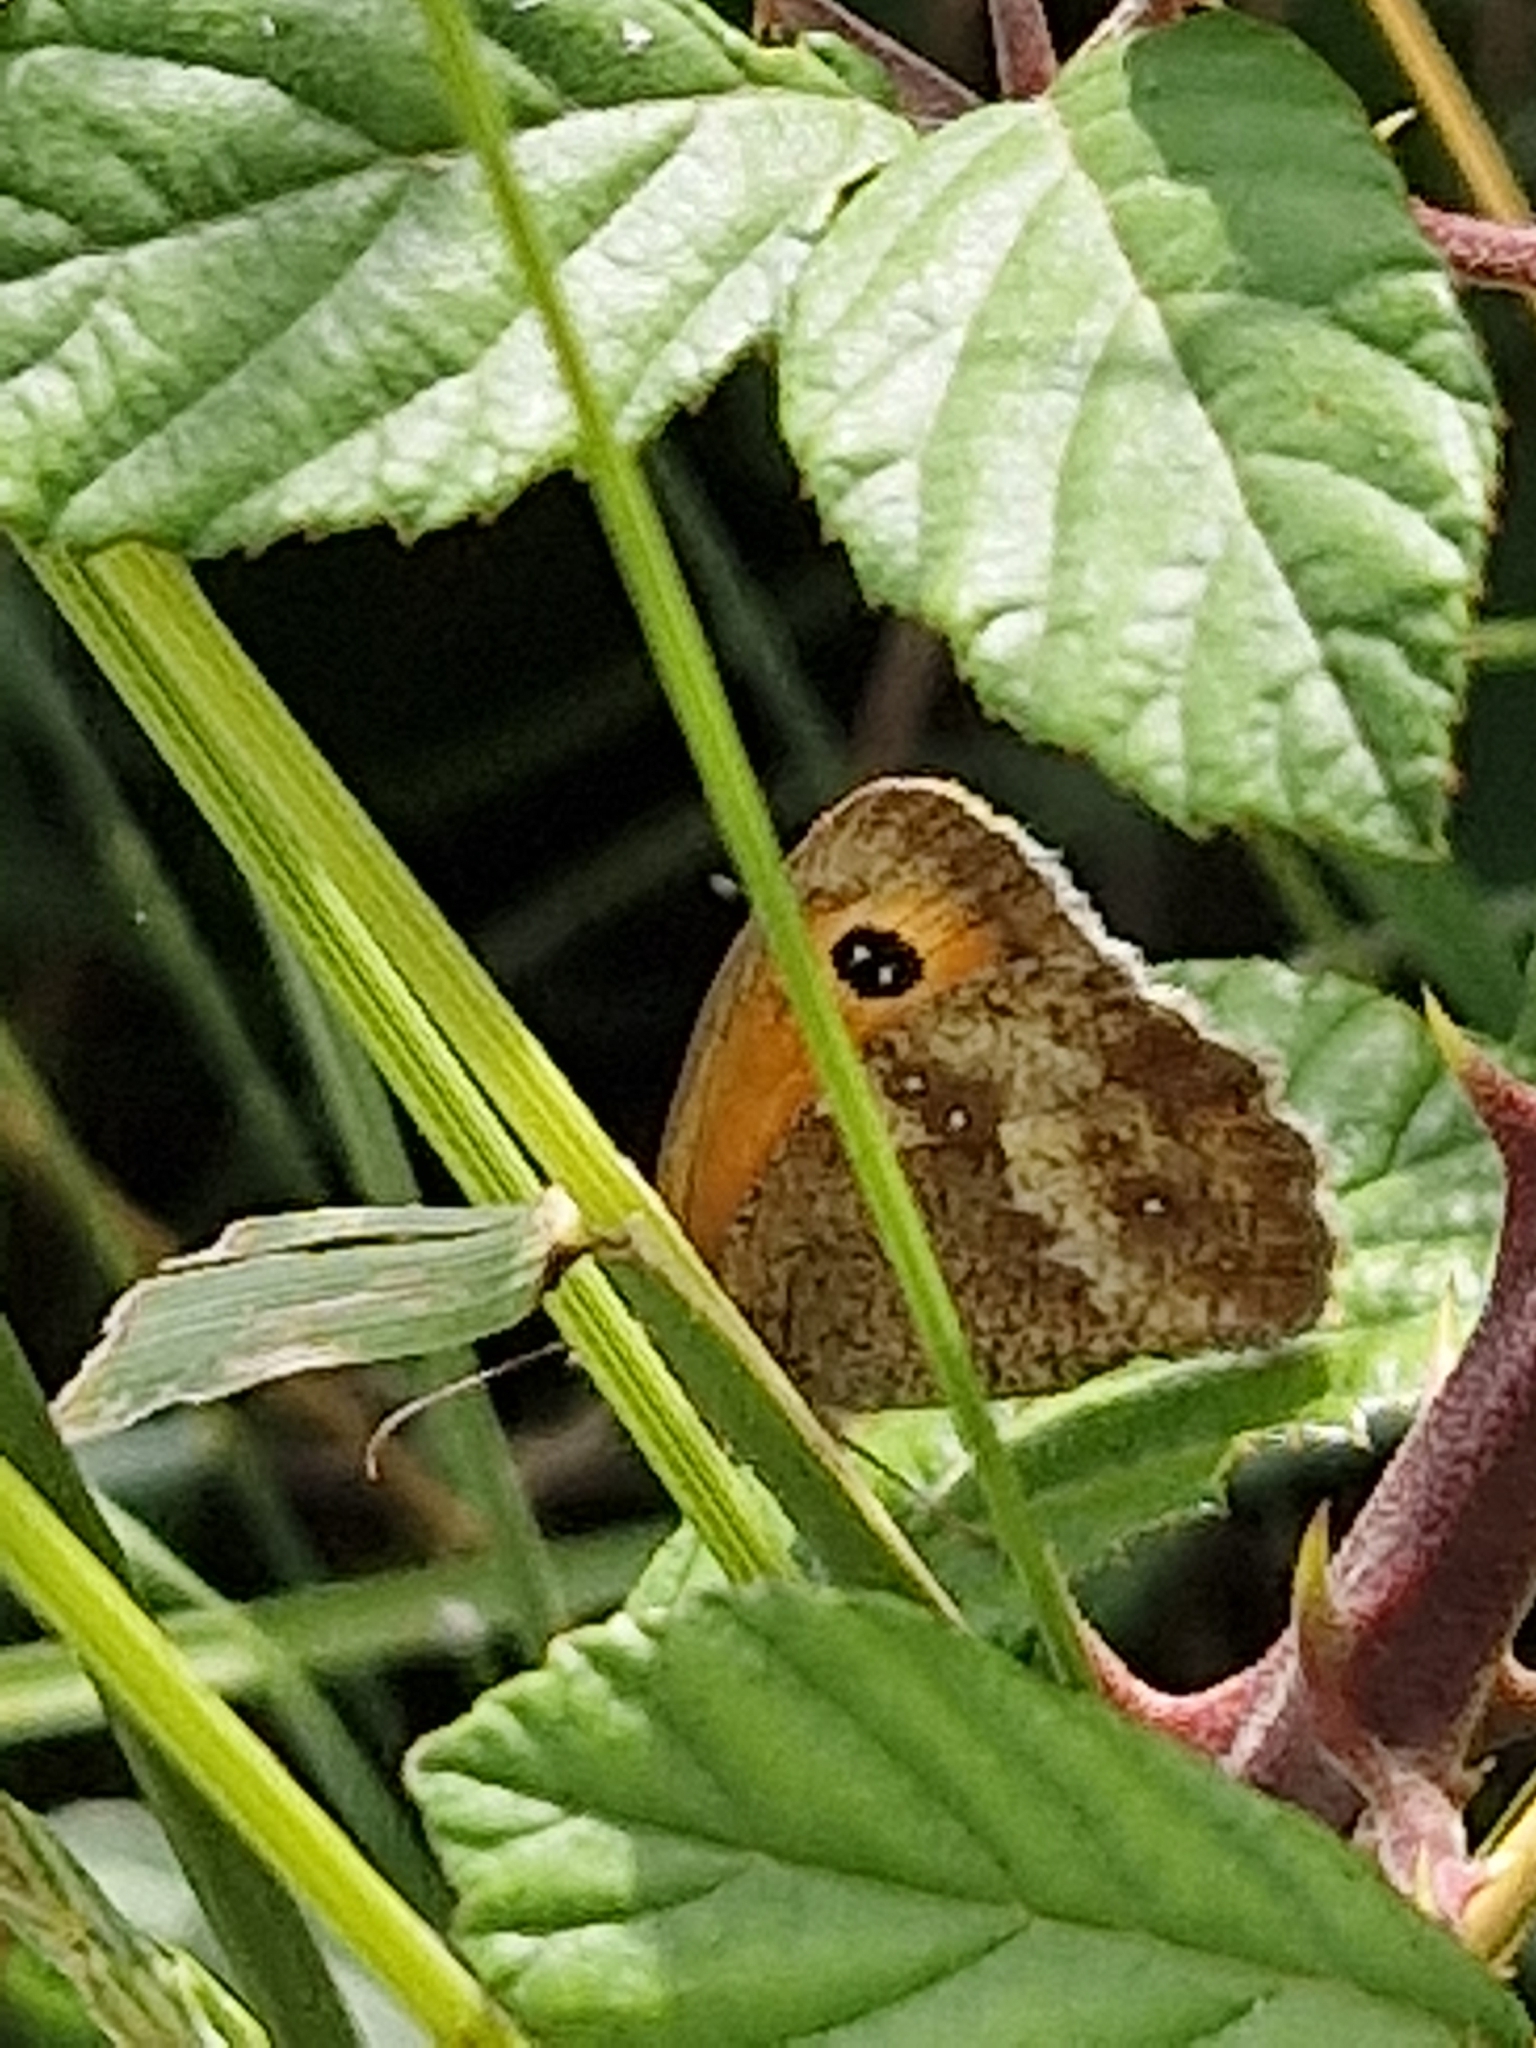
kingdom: Animalia
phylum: Arthropoda
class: Insecta
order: Lepidoptera
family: Nymphalidae
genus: Pyronia
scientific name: Pyronia tithonus
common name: Gatekeeper
